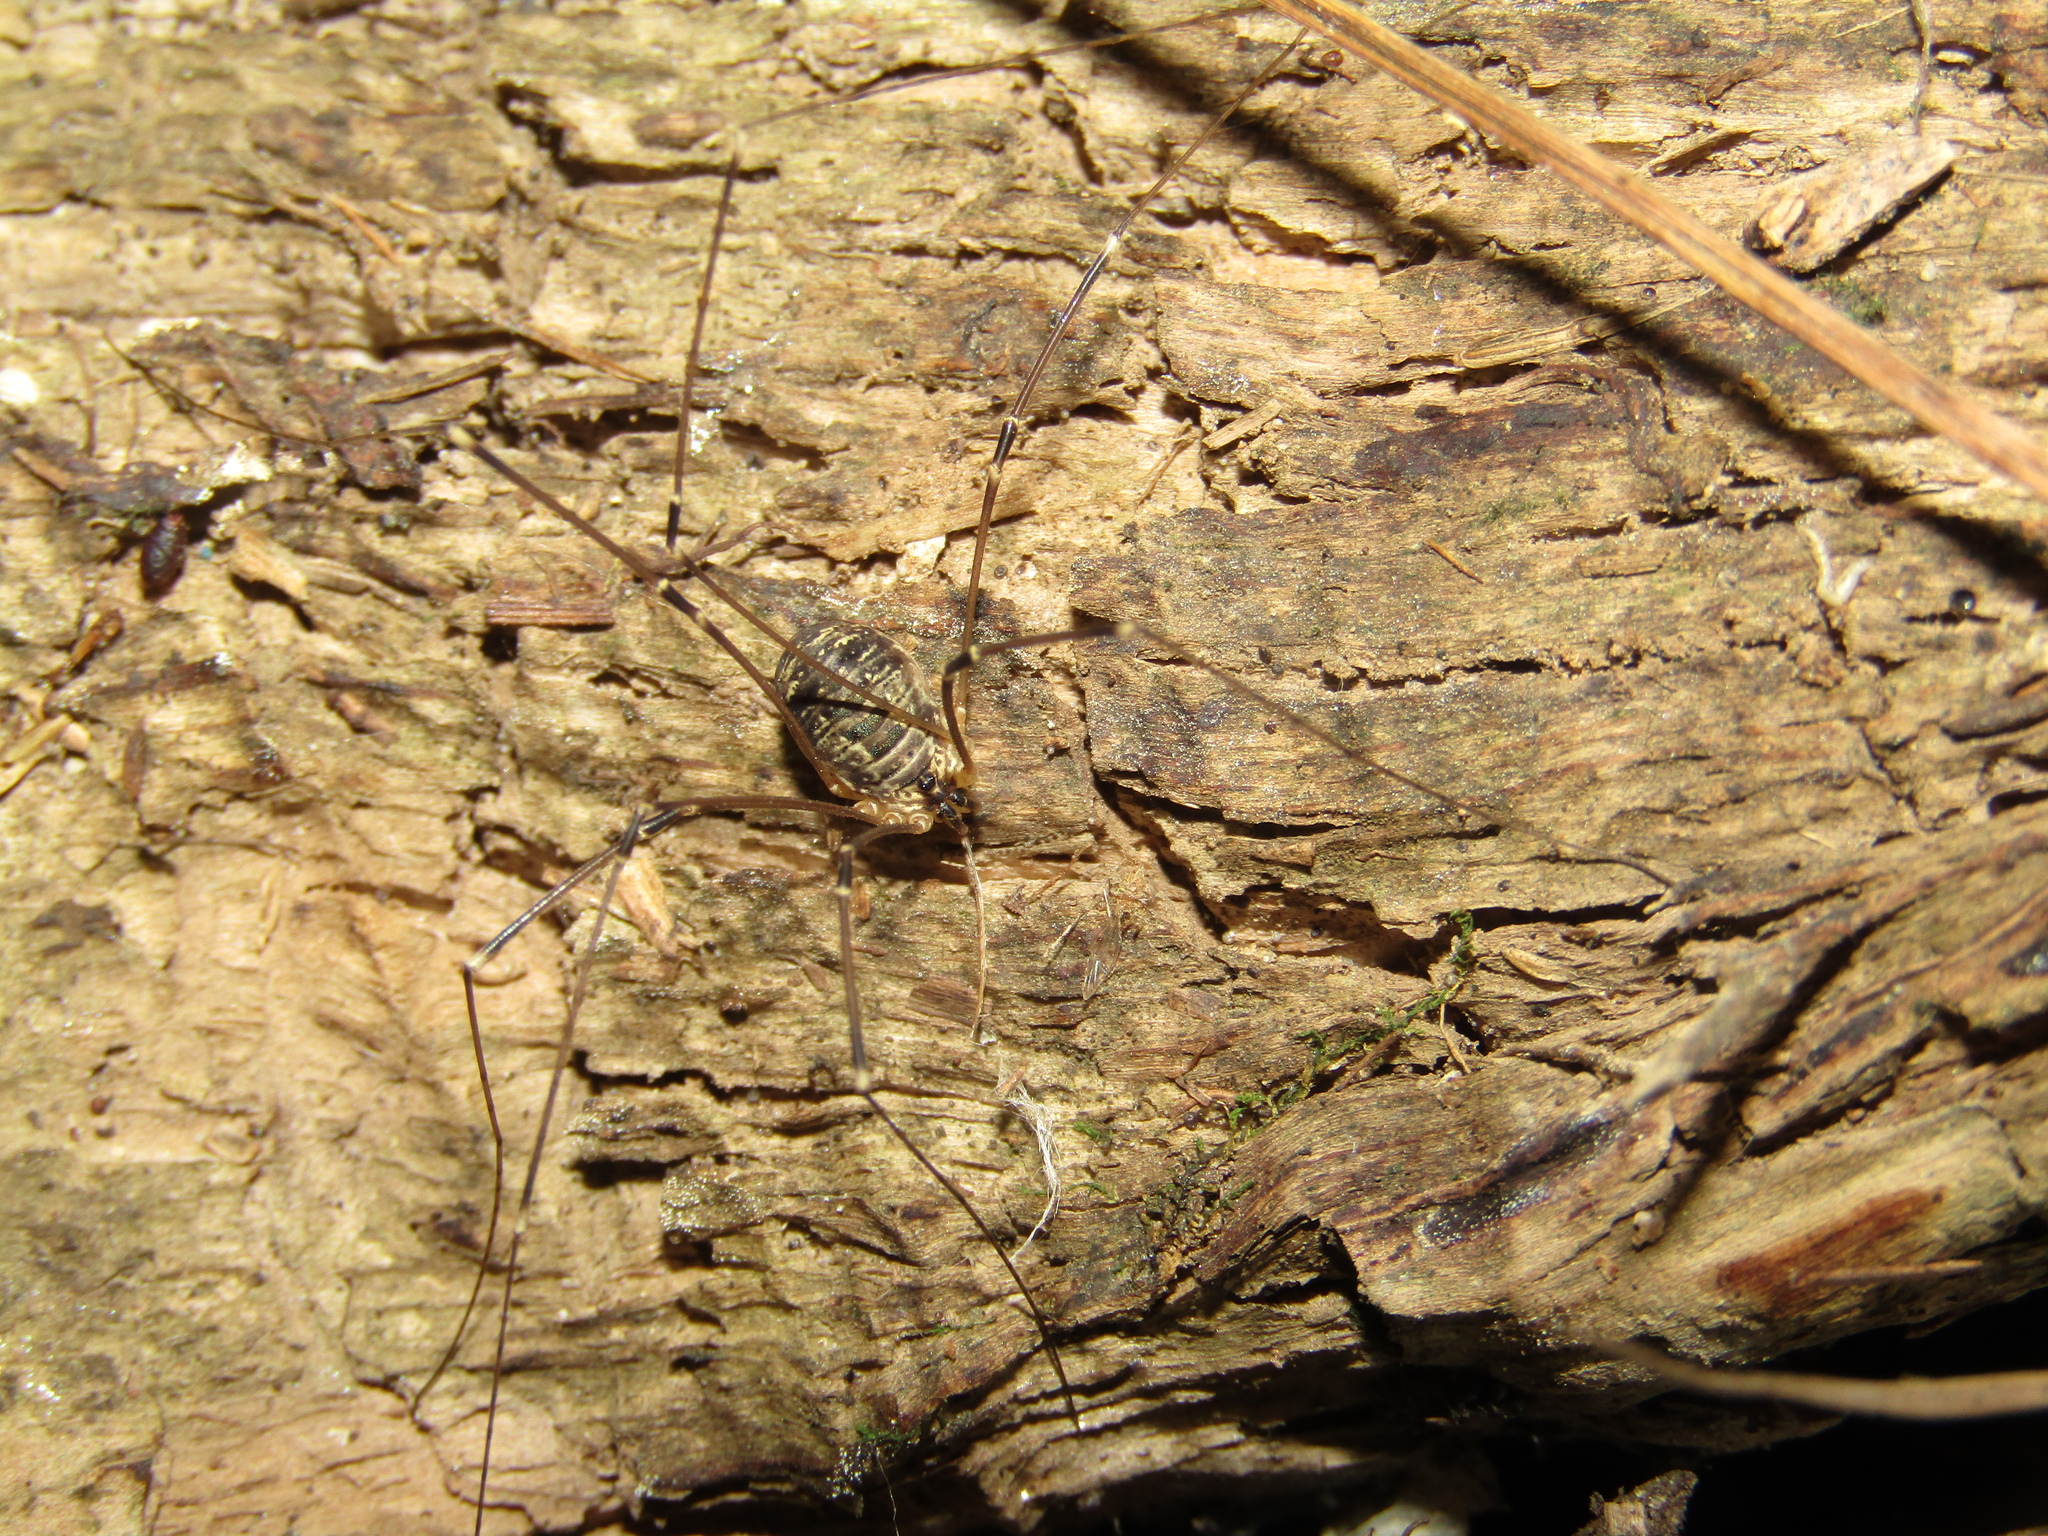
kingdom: Animalia
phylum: Arthropoda
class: Arachnida
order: Opiliones
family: Sclerosomatidae
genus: Leiobunum
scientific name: Leiobunum gracile
